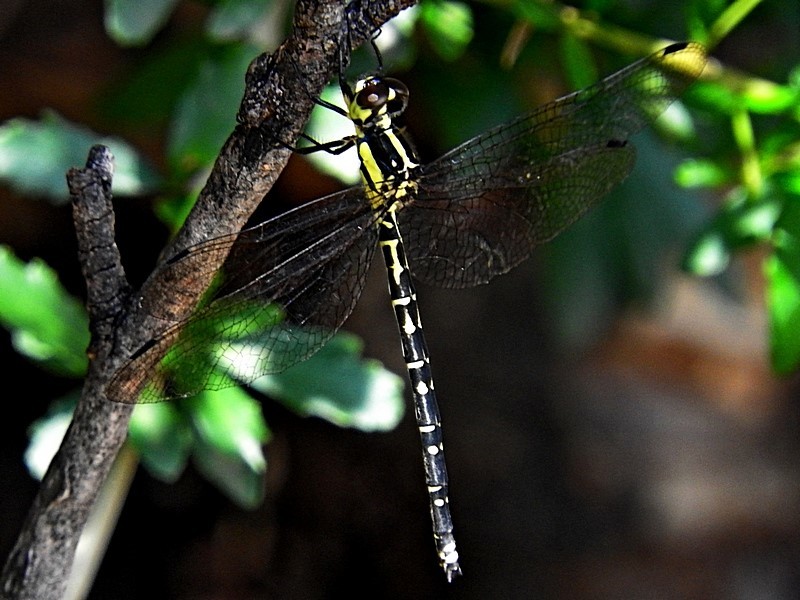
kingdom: Animalia
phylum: Arthropoda
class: Insecta
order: Odonata
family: Synthemistidae
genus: Choristhemis
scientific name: Choristhemis flavoterminata
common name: Yellow-tipped tigertail
